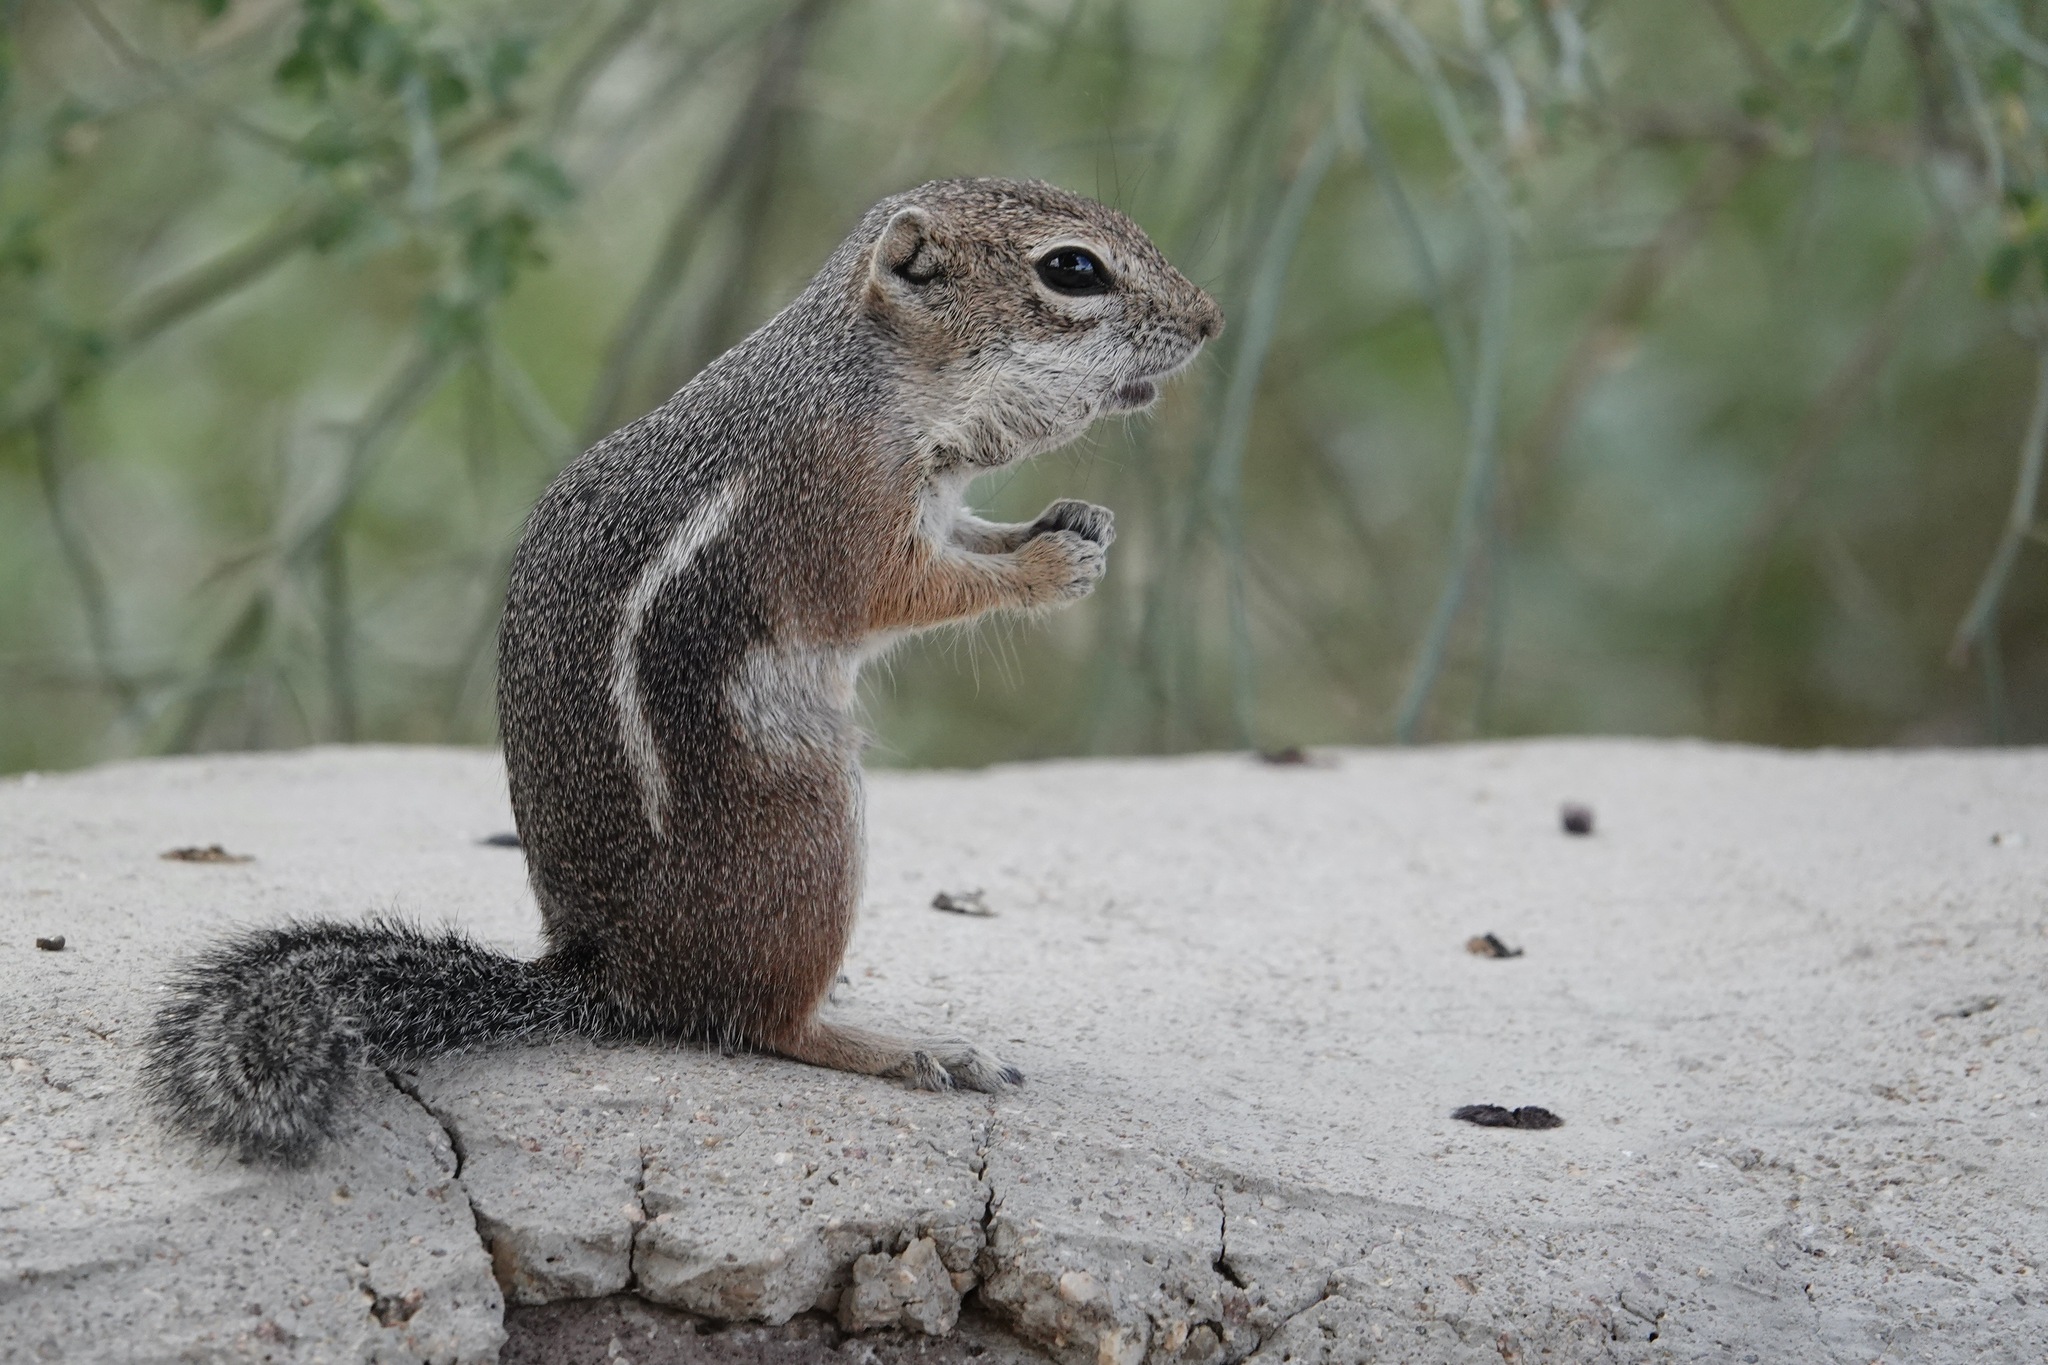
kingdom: Animalia
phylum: Chordata
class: Mammalia
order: Rodentia
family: Sciuridae
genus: Ammospermophilus
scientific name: Ammospermophilus harrisii
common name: Harris's antelope squirrel
